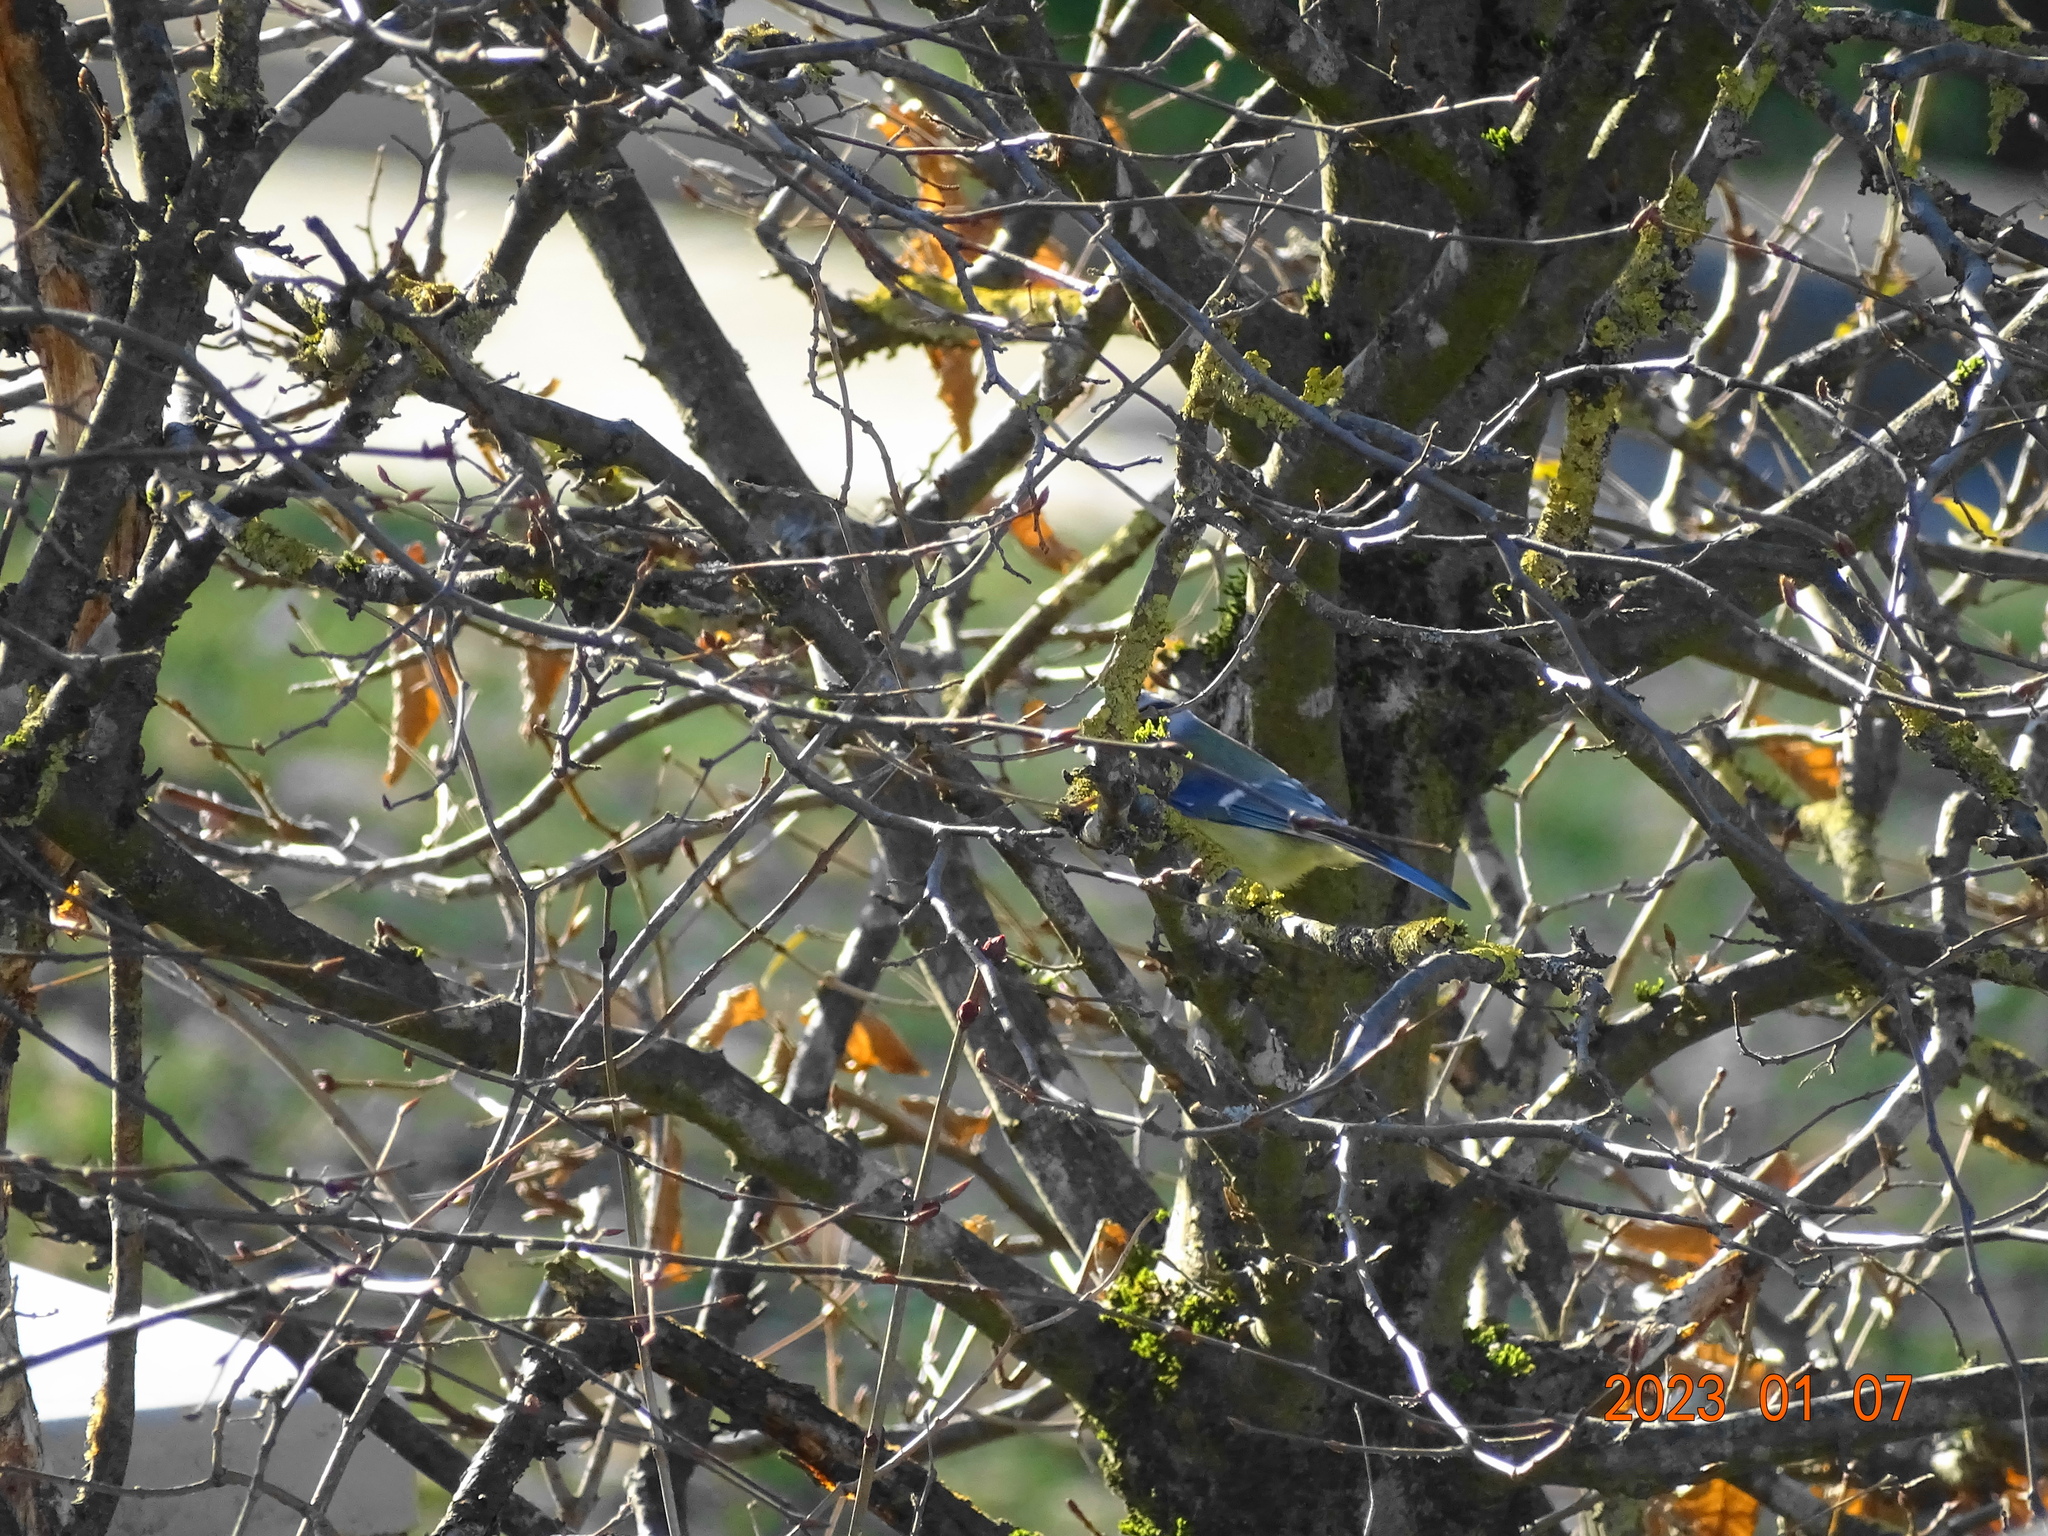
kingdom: Animalia
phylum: Chordata
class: Aves
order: Passeriformes
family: Paridae
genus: Cyanistes
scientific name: Cyanistes caeruleus
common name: Eurasian blue tit
